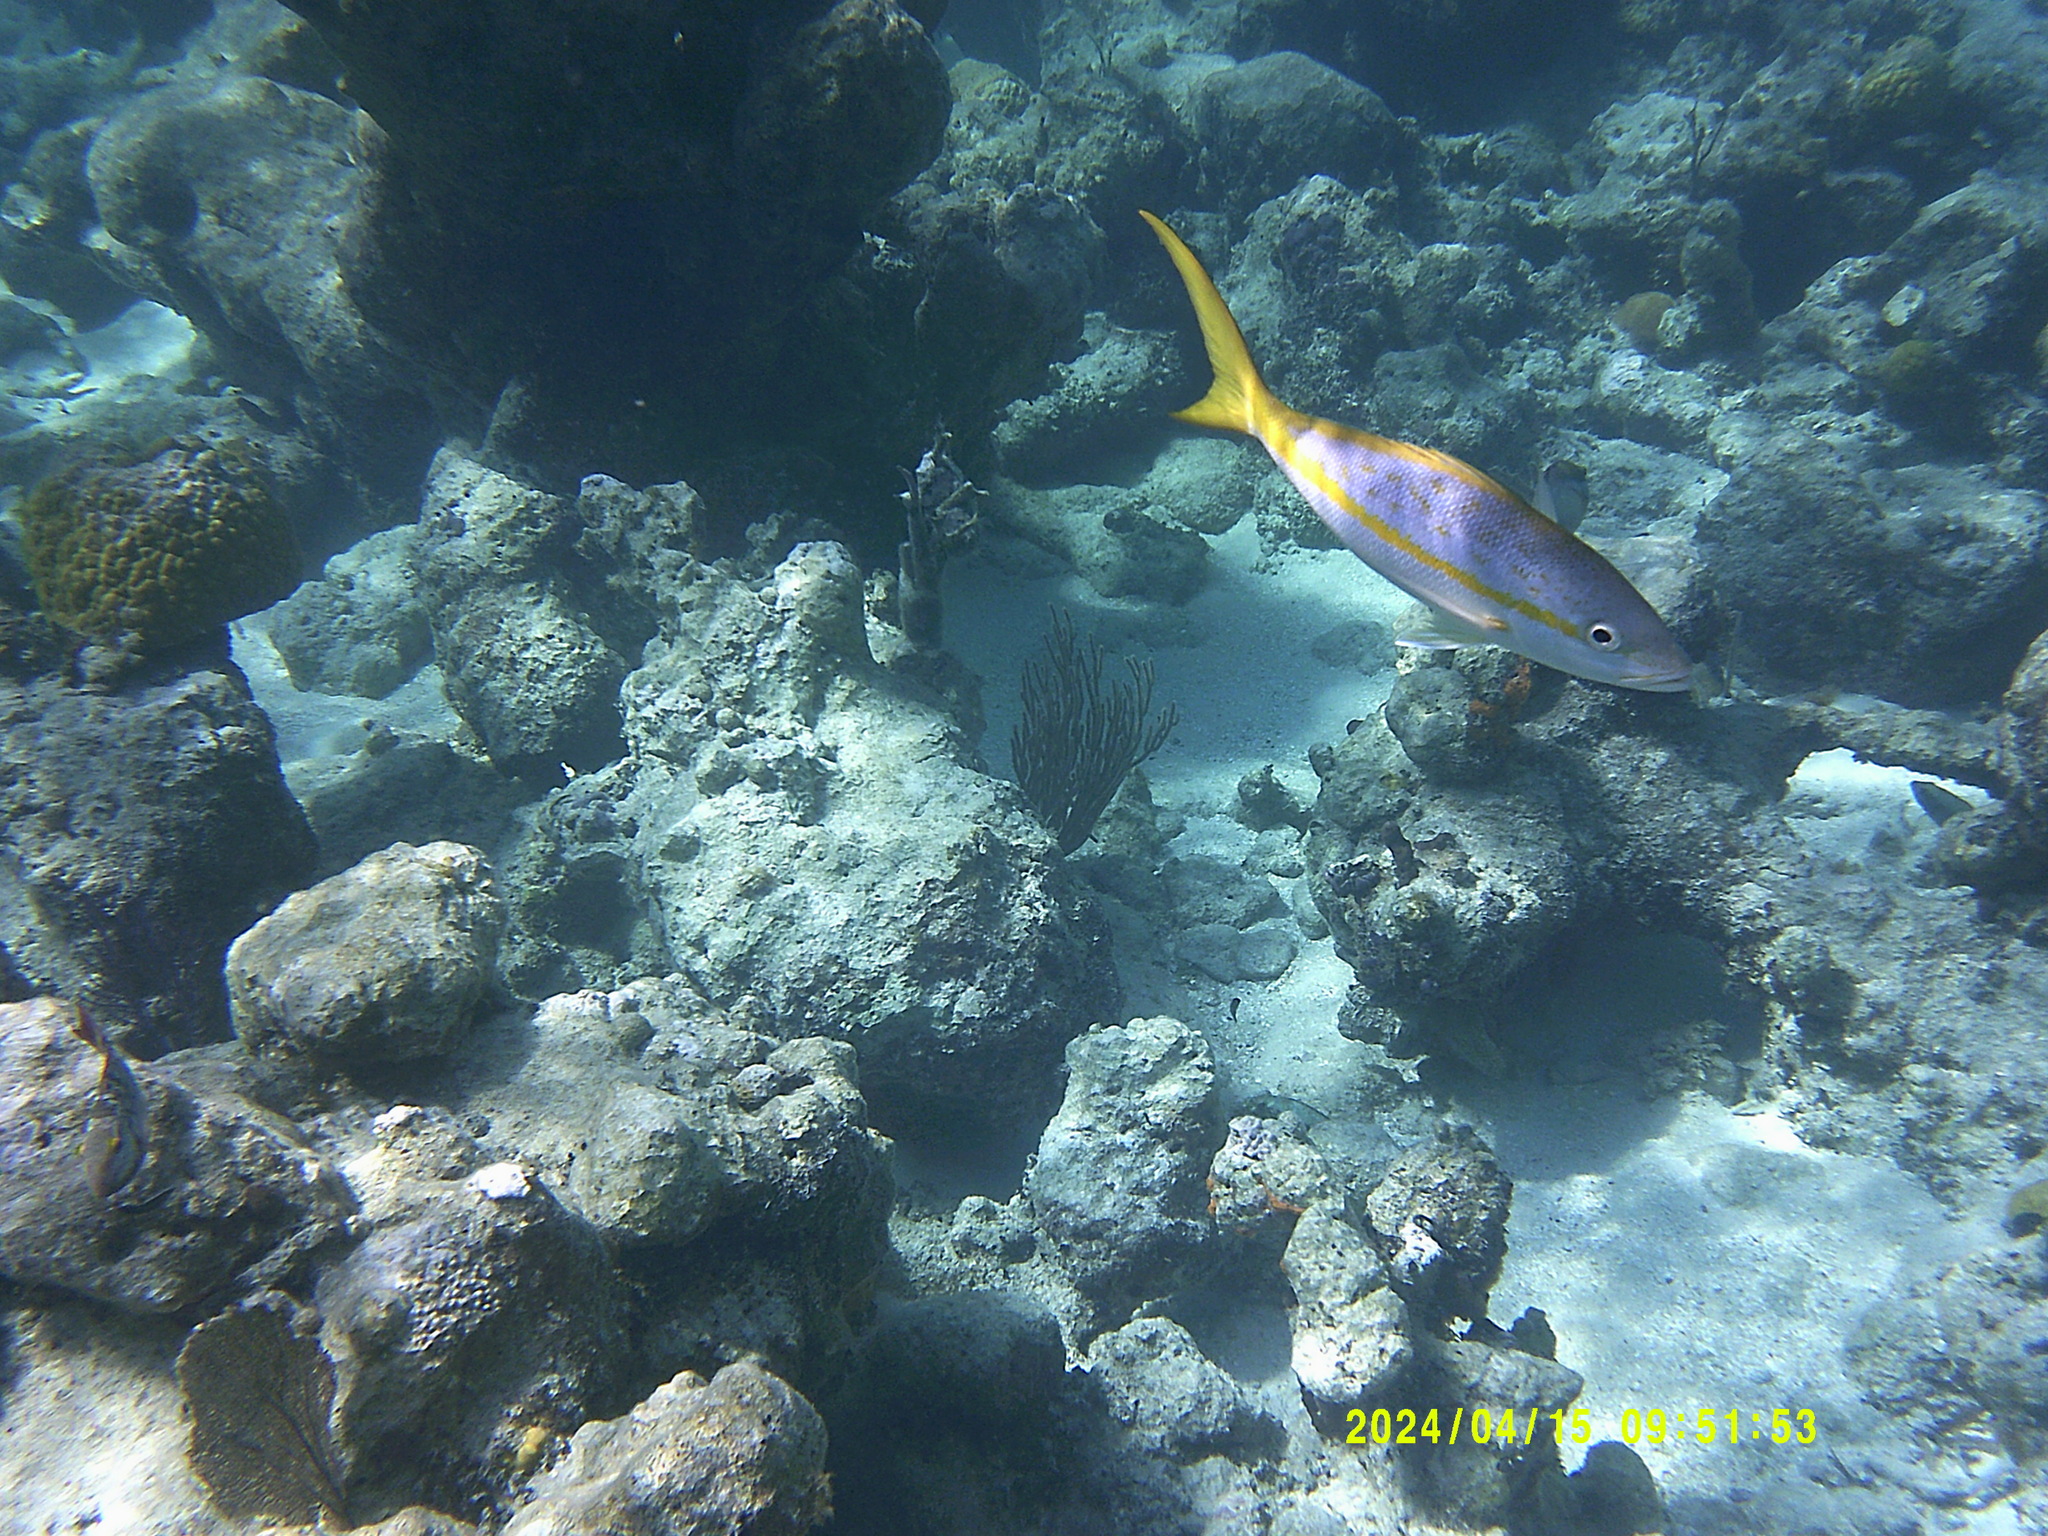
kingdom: Animalia
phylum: Chordata
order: Perciformes
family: Lutjanidae
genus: Ocyurus
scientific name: Ocyurus chrysurus
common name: Yellowtail snapper
